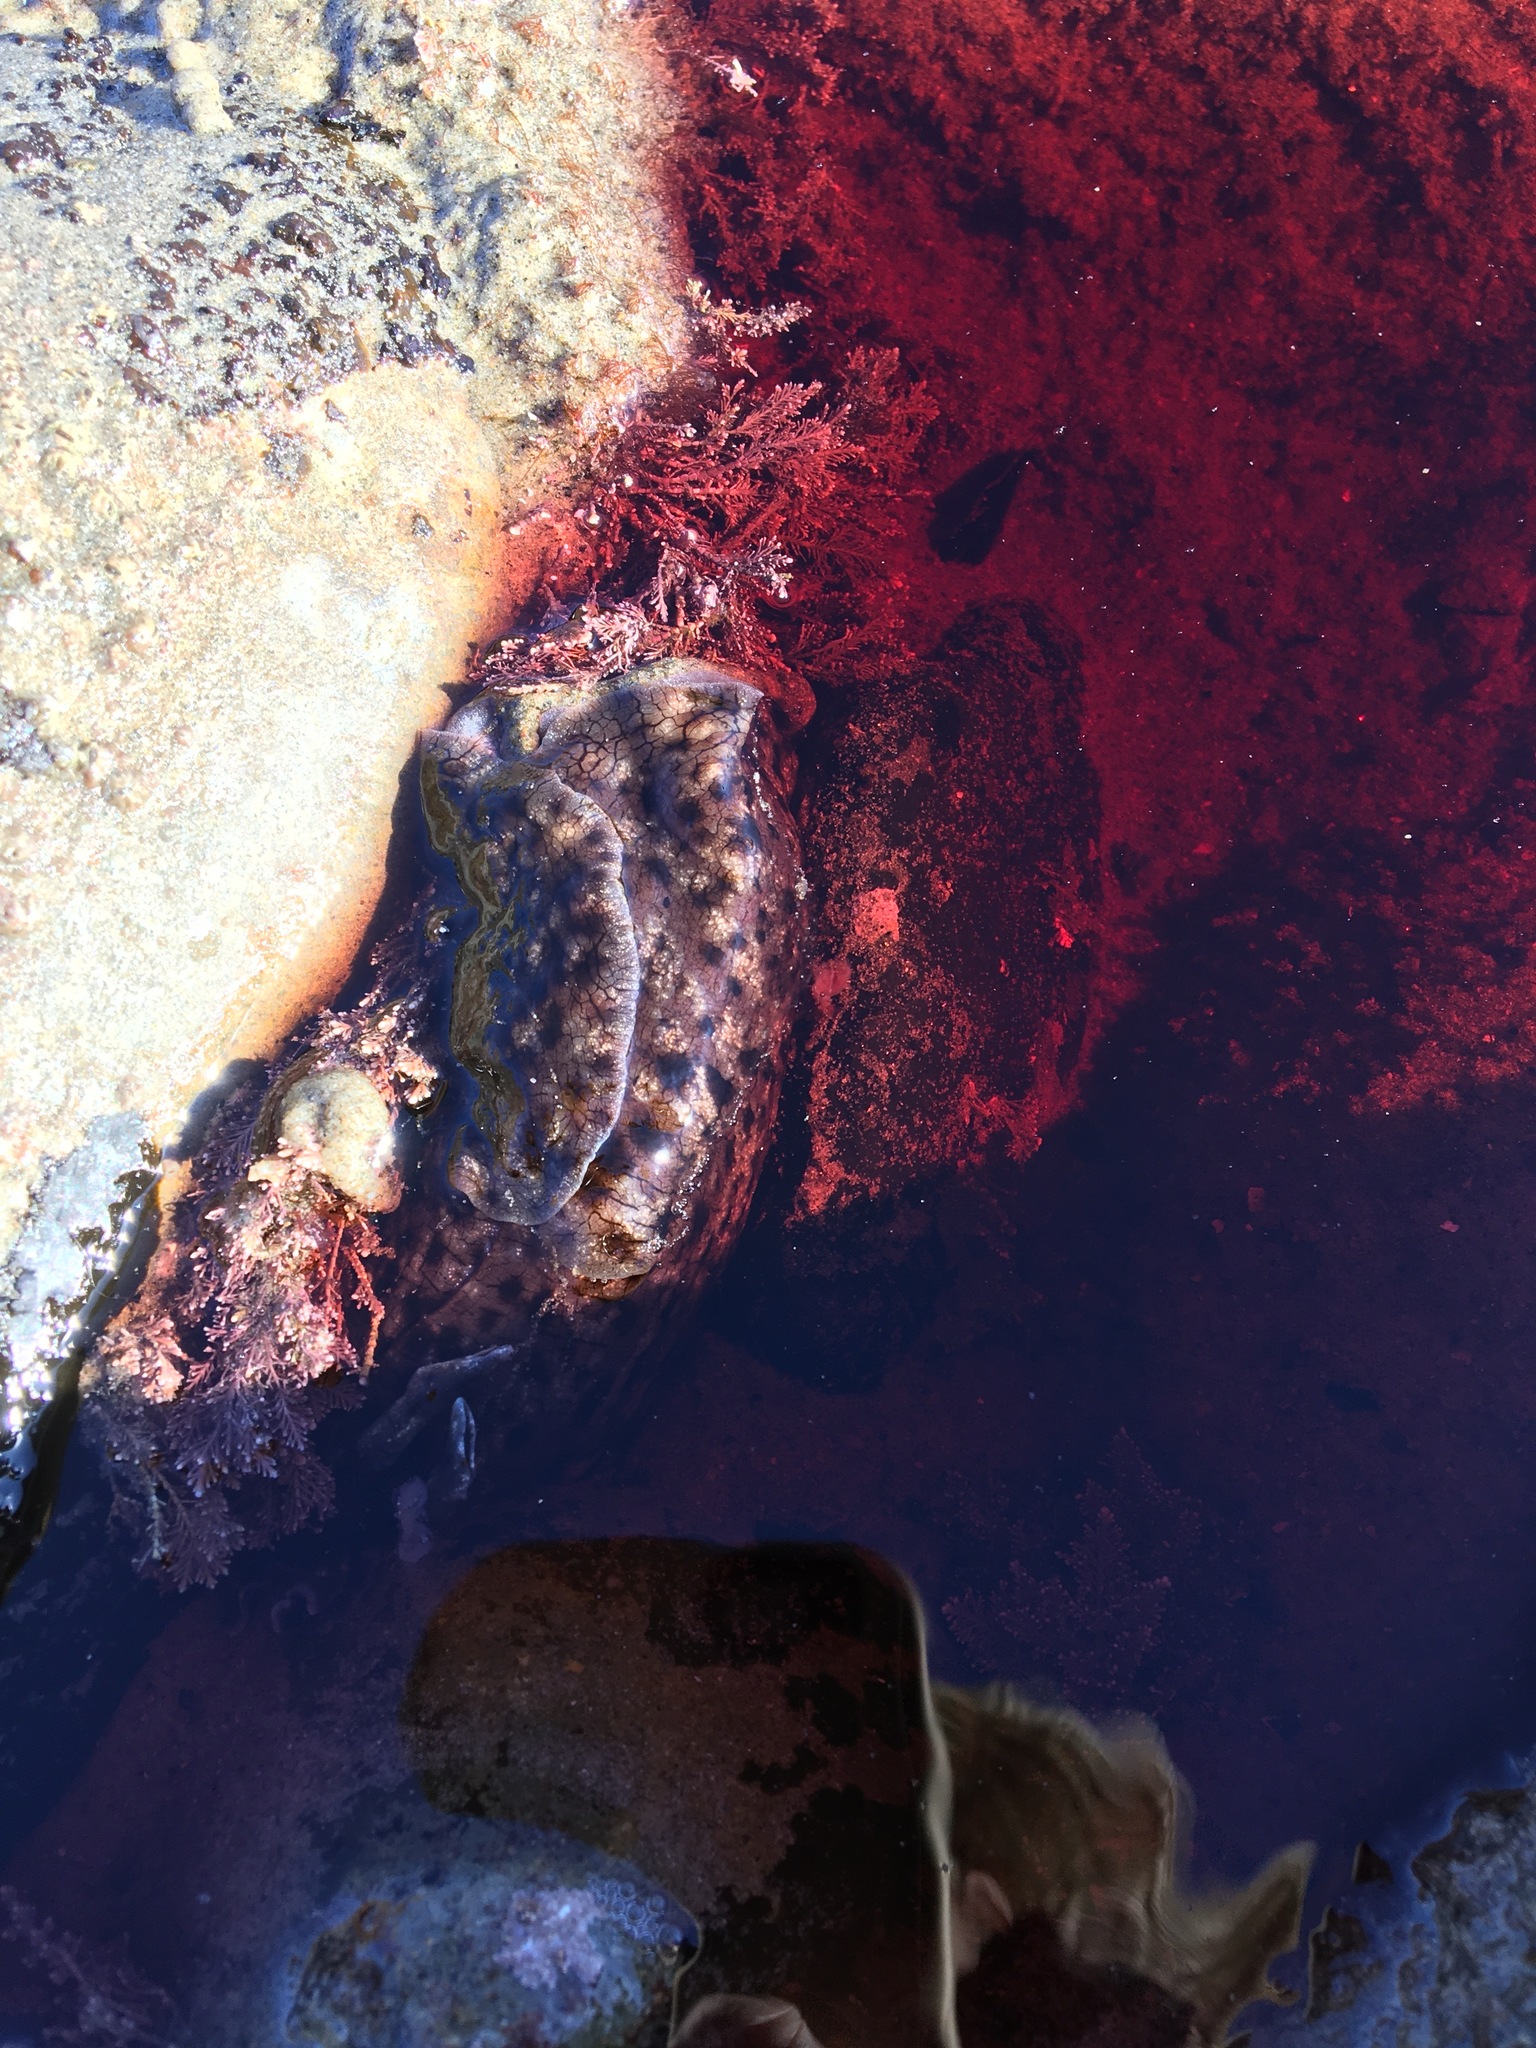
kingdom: Animalia
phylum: Mollusca
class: Gastropoda
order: Aplysiida
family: Aplysiidae
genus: Aplysia
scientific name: Aplysia californica
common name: California seahare
